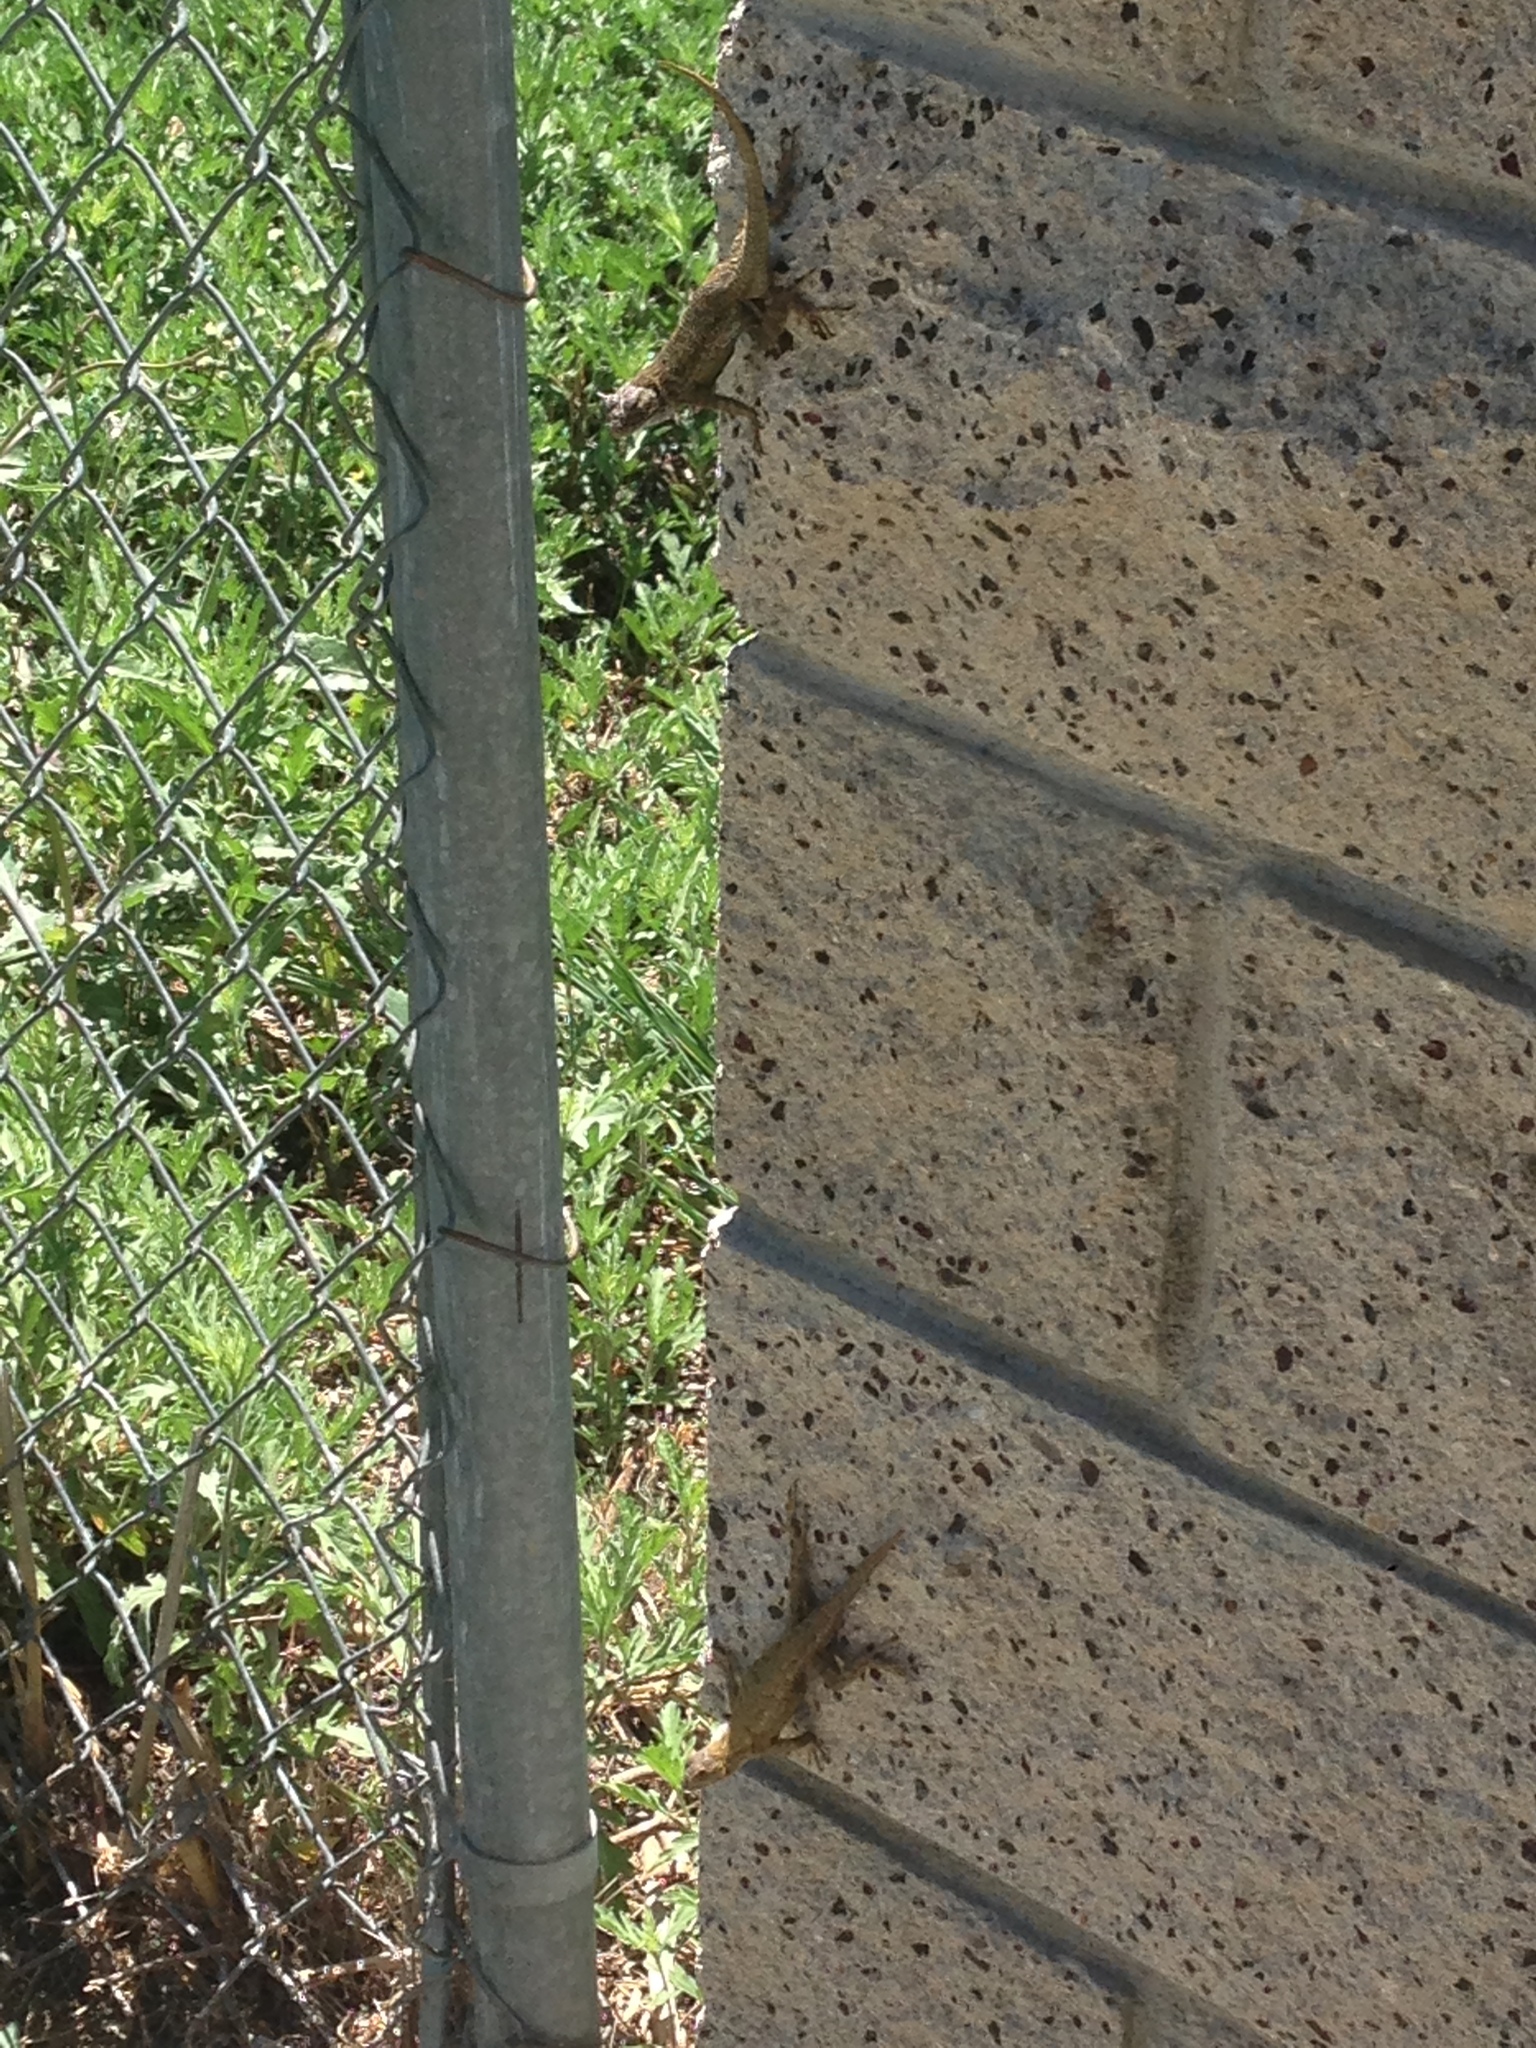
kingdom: Animalia
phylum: Chordata
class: Squamata
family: Phrynosomatidae
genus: Sceloporus
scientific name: Sceloporus occidentalis
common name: Western fence lizard
